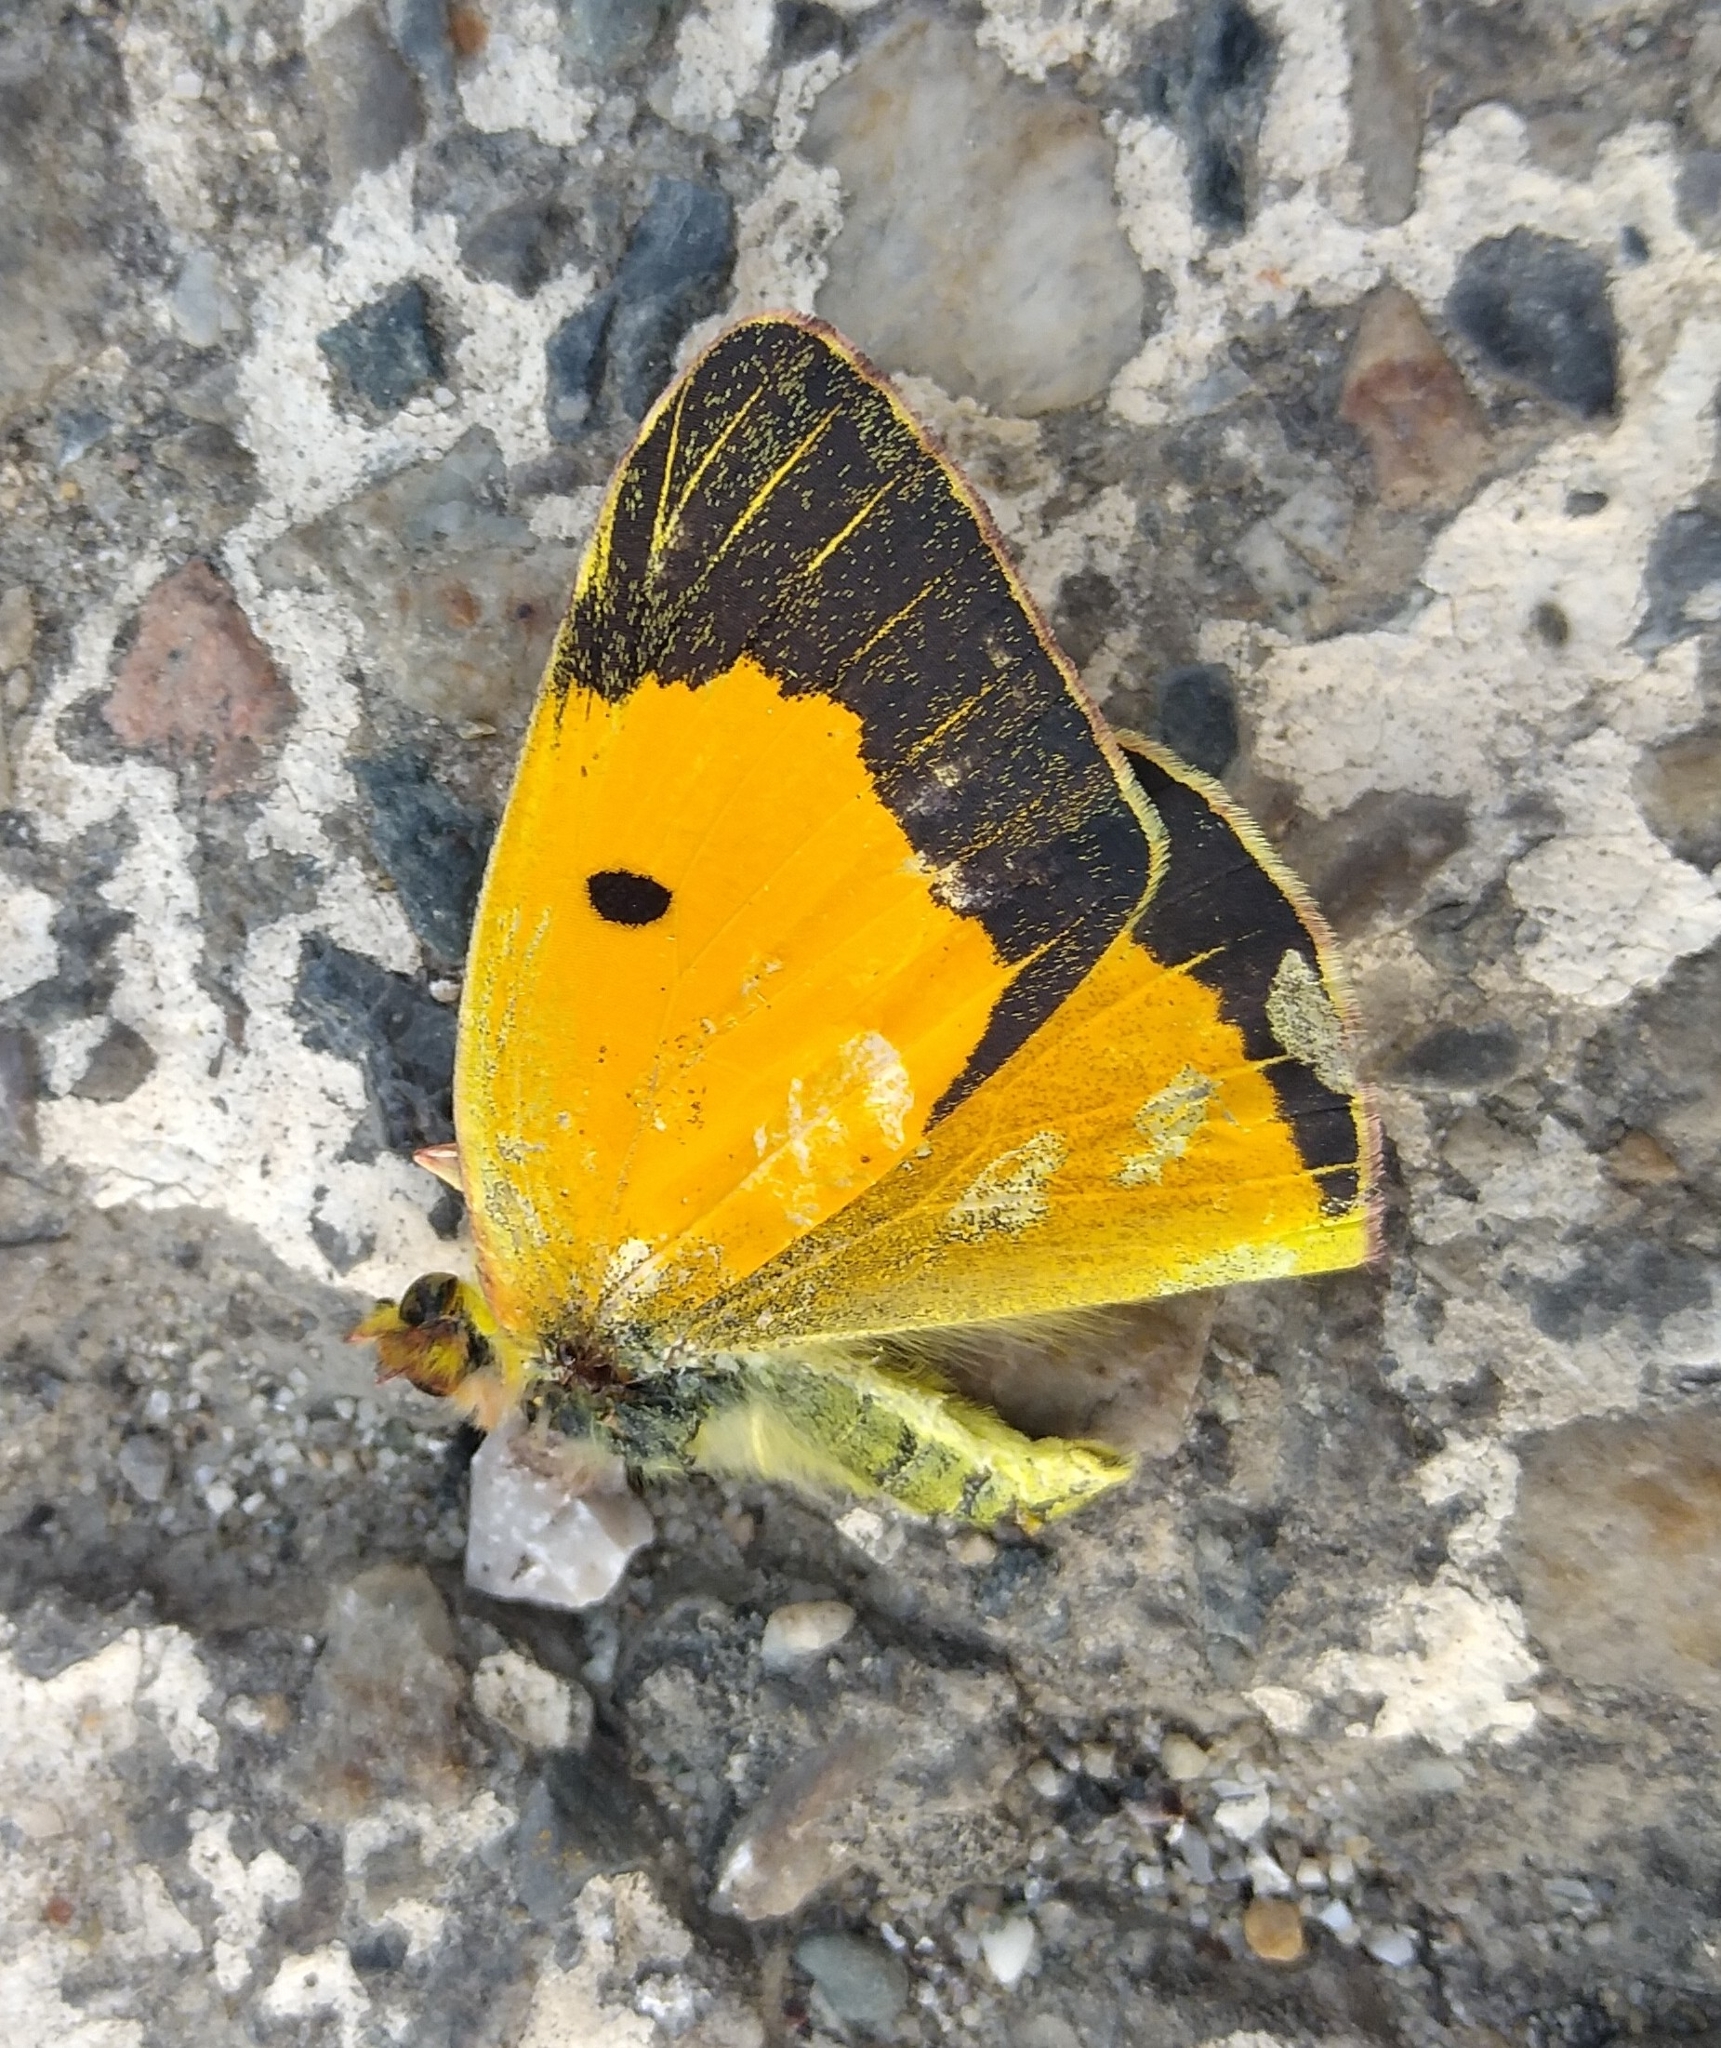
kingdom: Animalia
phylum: Arthropoda
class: Insecta
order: Lepidoptera
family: Pieridae
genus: Colias
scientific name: Colias croceus
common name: Clouded yellow
